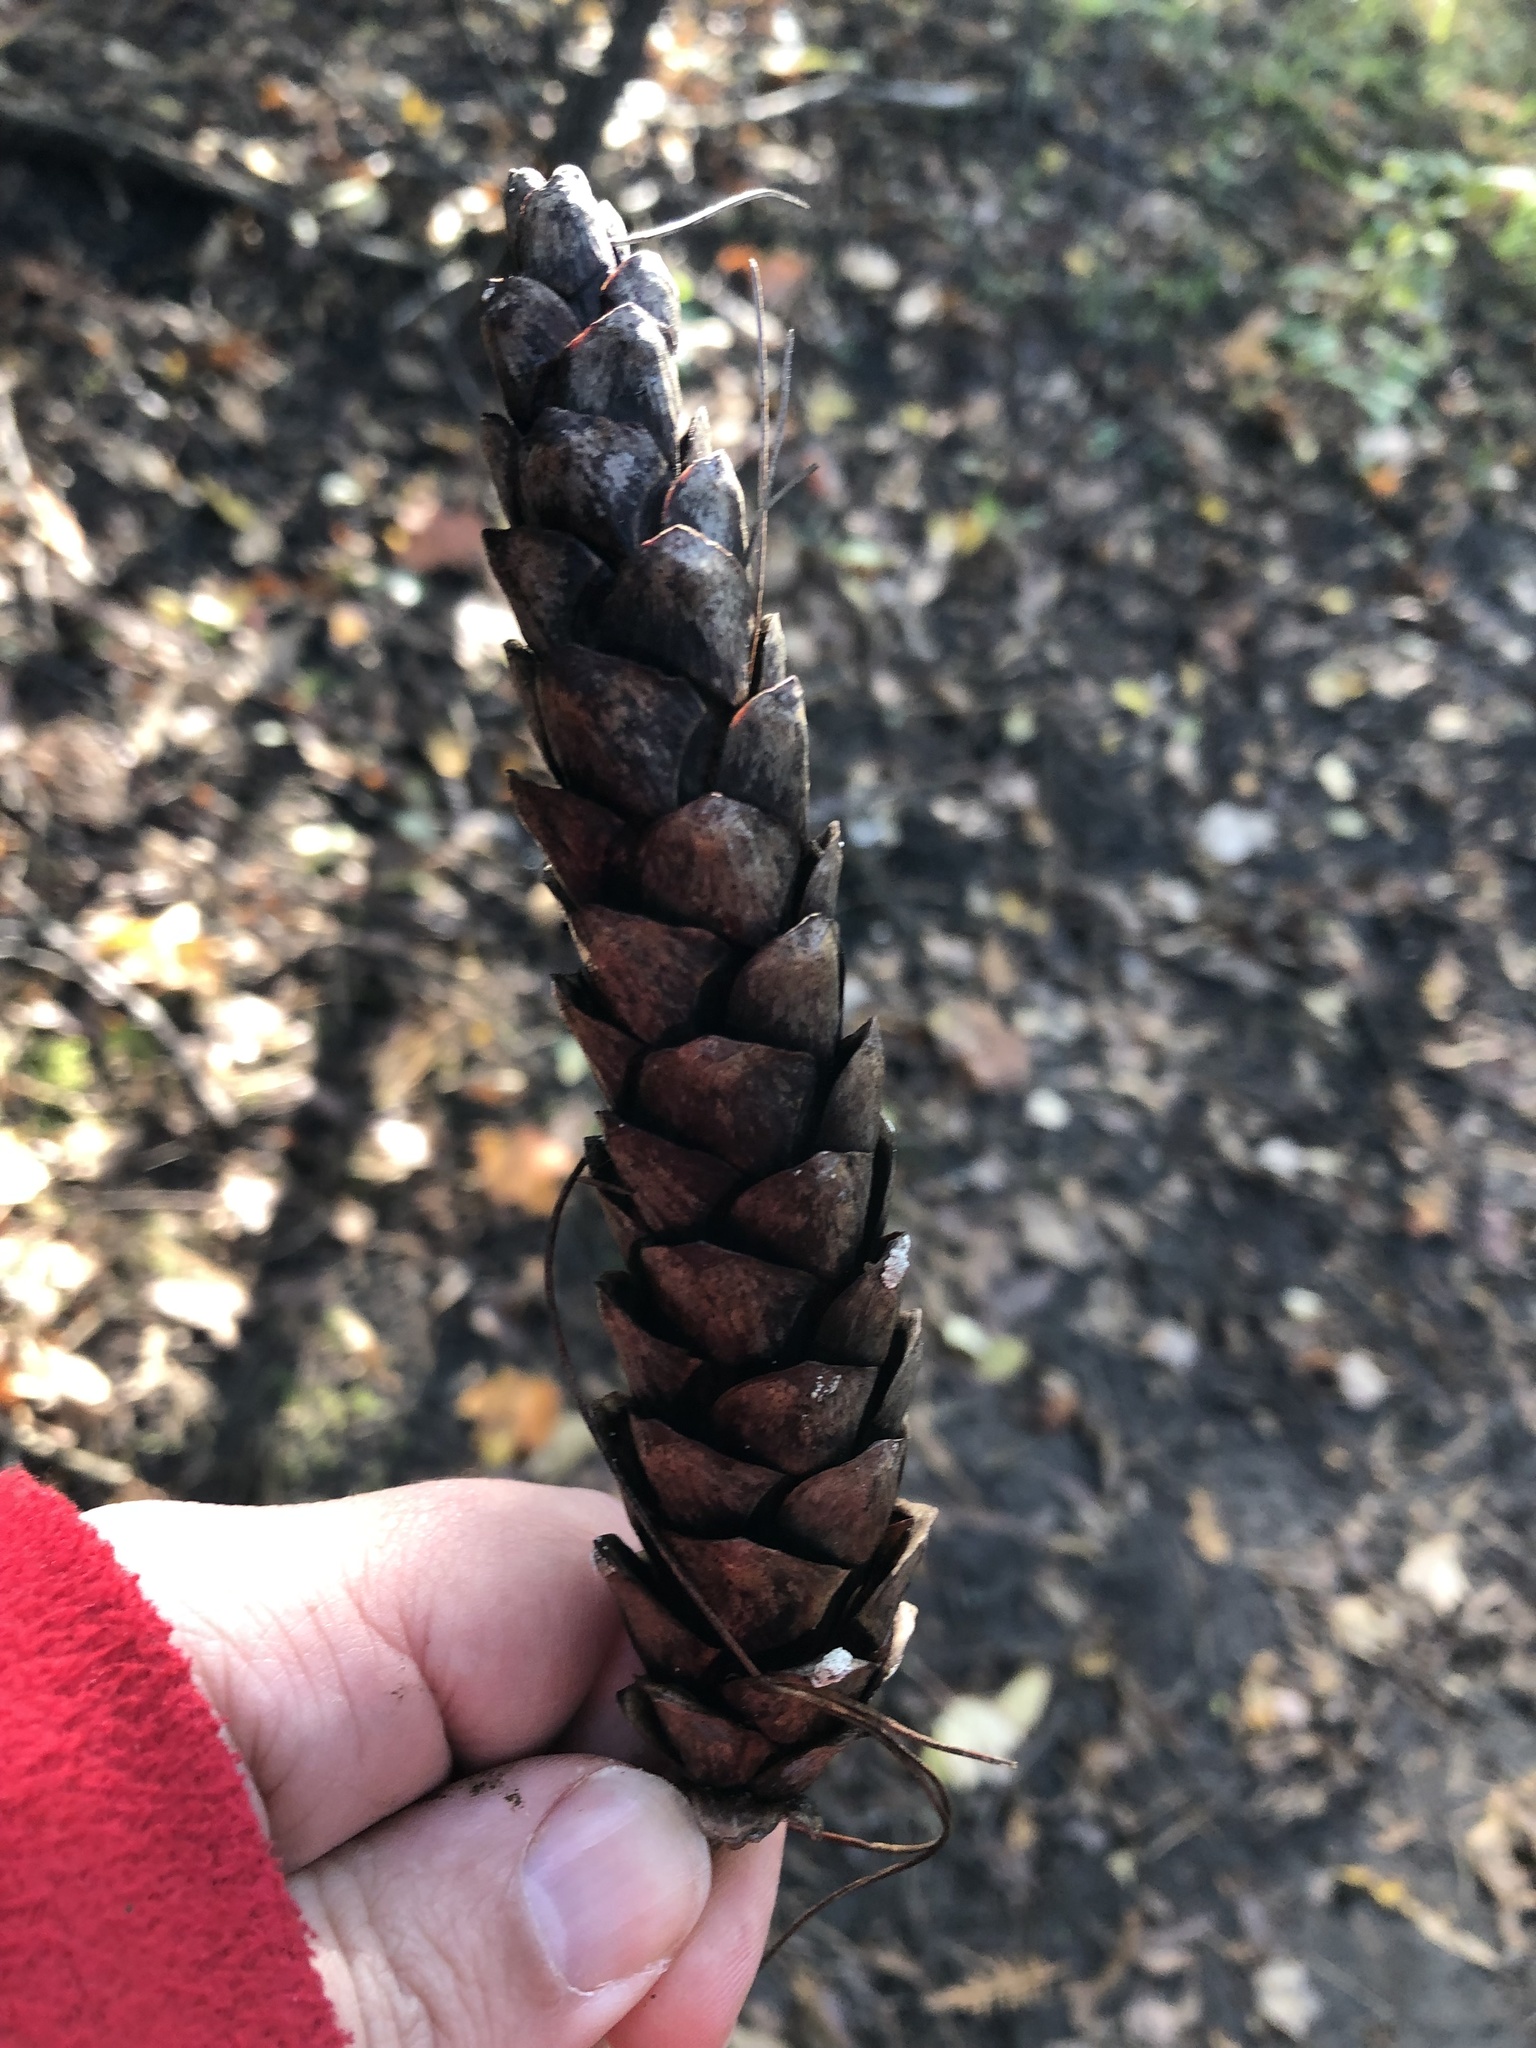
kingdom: Plantae
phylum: Tracheophyta
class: Pinopsida
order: Pinales
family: Pinaceae
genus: Pinus
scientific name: Pinus strobus
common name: Weymouth pine
